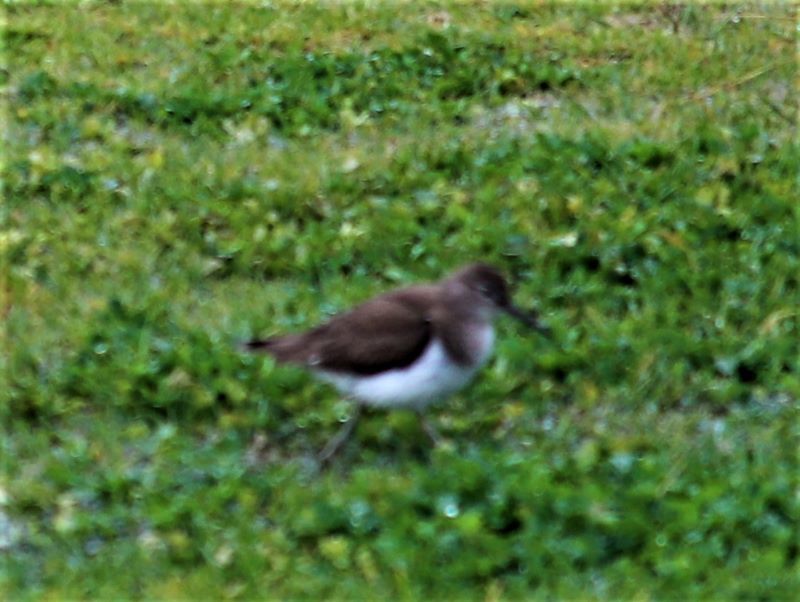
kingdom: Animalia
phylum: Chordata
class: Aves
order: Charadriiformes
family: Scolopacidae
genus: Actitis
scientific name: Actitis hypoleucos
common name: Common sandpiper
